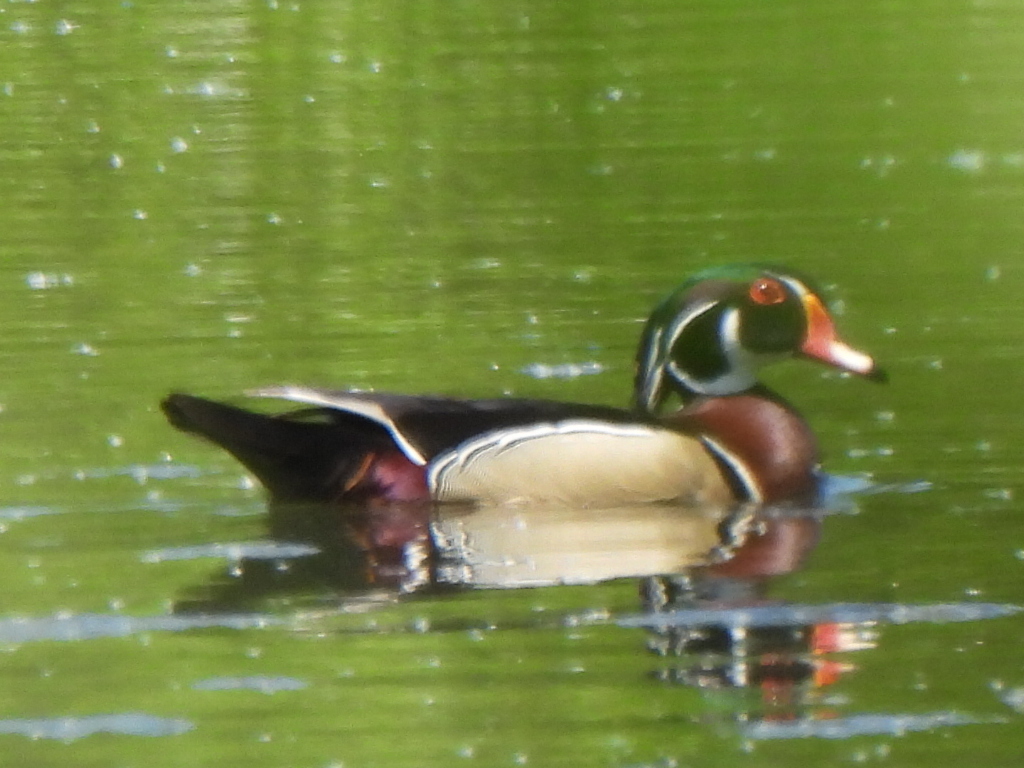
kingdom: Animalia
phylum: Chordata
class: Aves
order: Anseriformes
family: Anatidae
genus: Aix
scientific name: Aix sponsa
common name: Wood duck
